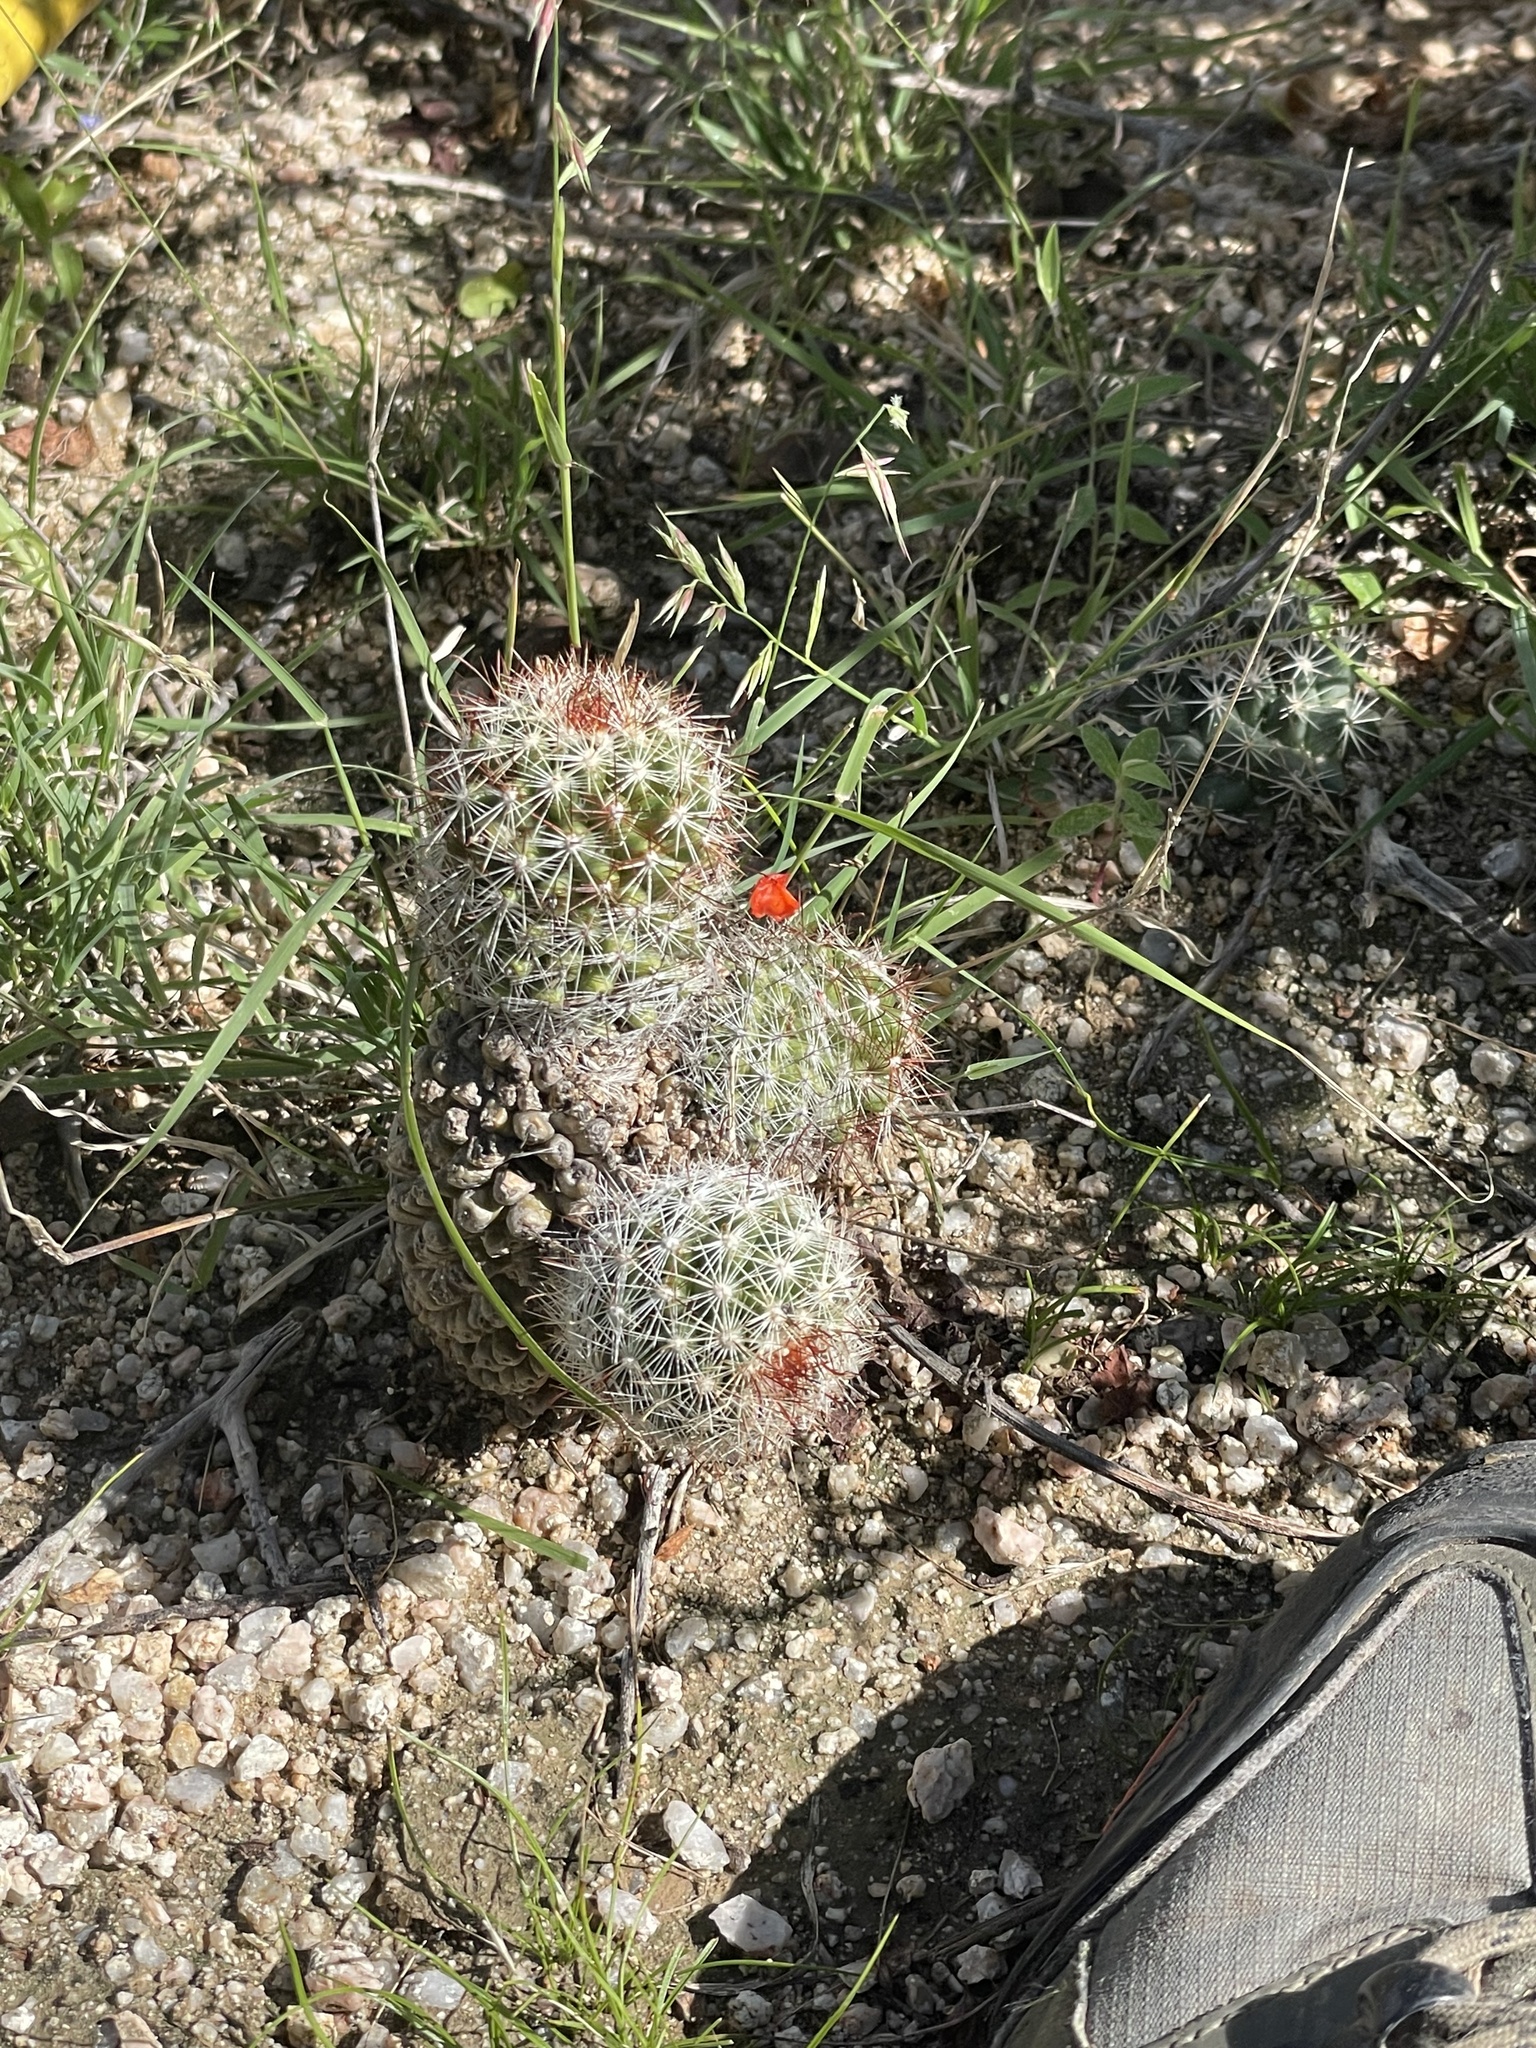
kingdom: Plantae
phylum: Tracheophyta
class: Magnoliopsida
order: Caryophyllales
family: Cactaceae
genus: Cochemiea
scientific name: Cochemiea armillata
